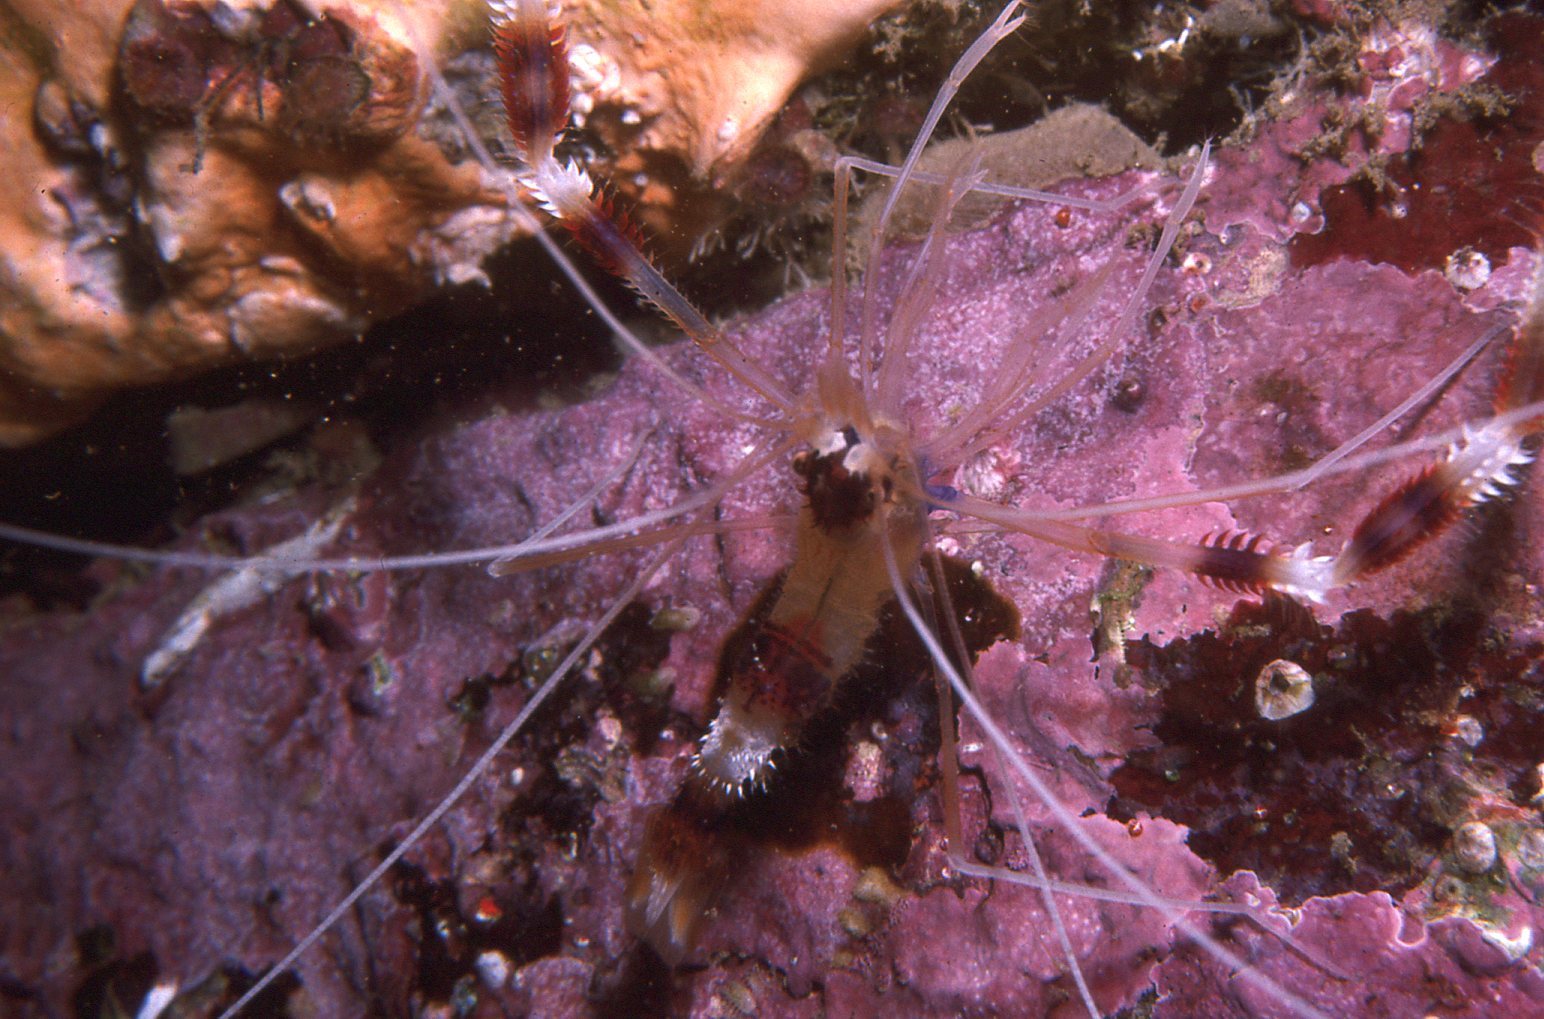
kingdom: Animalia
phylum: Arthropoda
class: Malacostraca
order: Decapoda
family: Stenopodidae
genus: Stenopus
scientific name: Stenopus hispidus
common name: Banded coral shrimp
